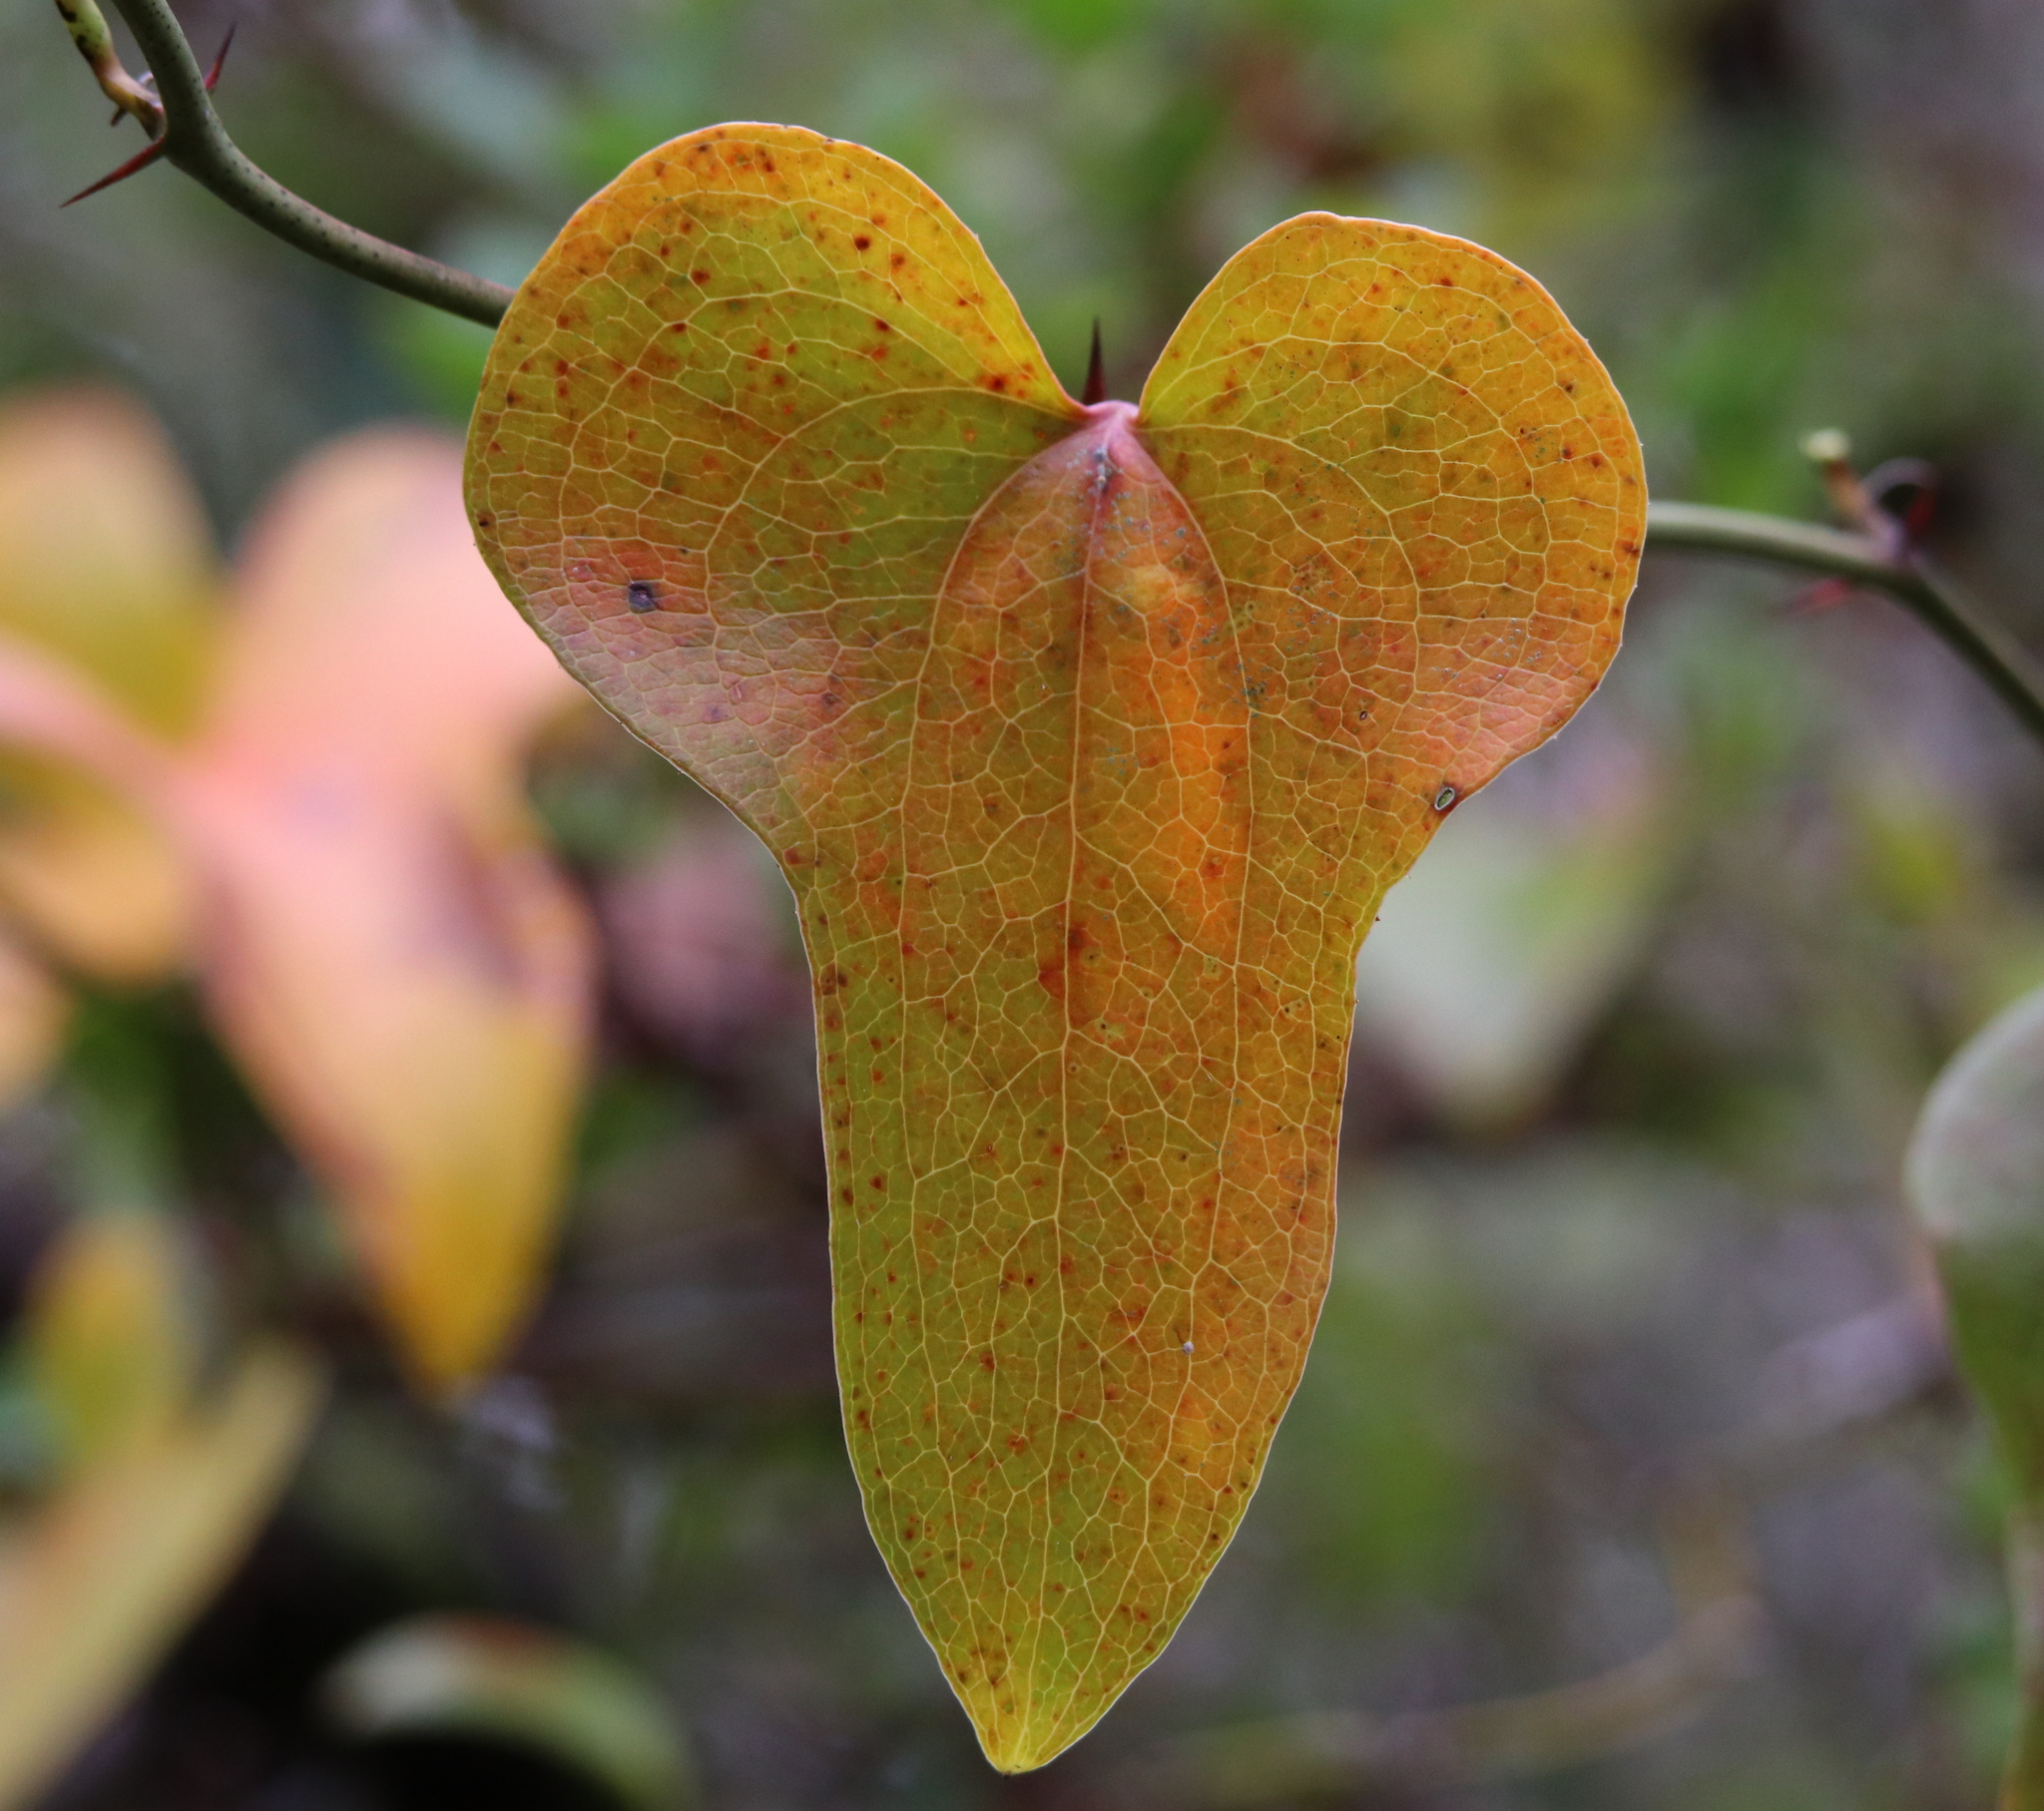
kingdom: Plantae
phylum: Tracheophyta
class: Liliopsida
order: Liliales
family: Smilacaceae
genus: Smilax
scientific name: Smilax bona-nox
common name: Catbrier
